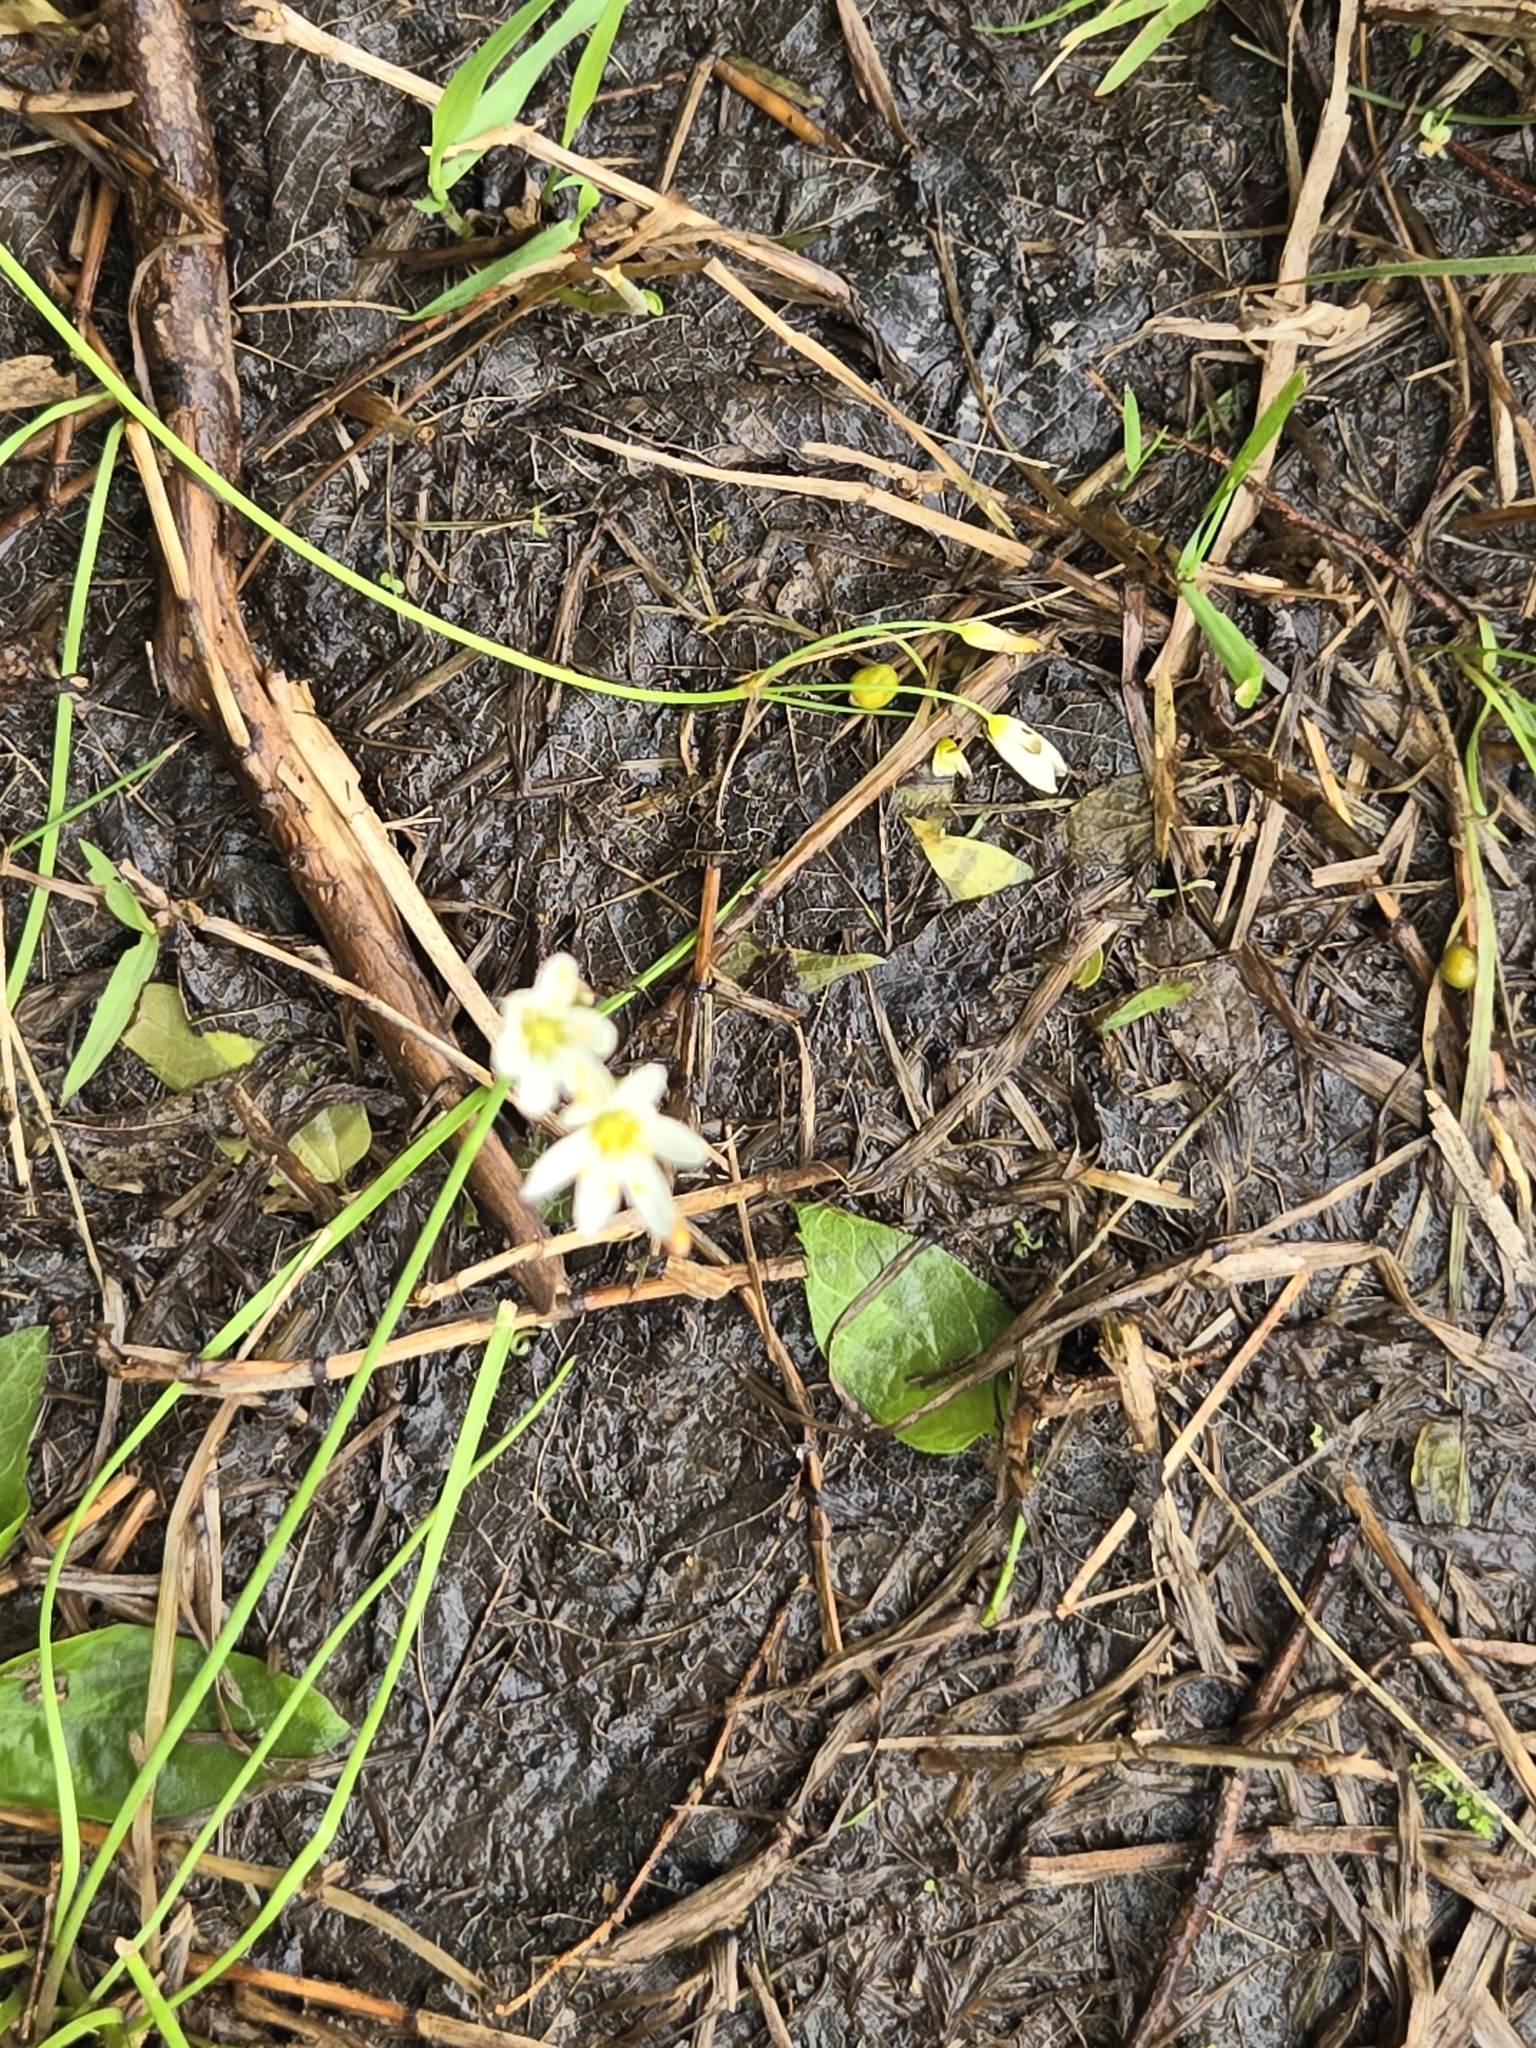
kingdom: Plantae
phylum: Tracheophyta
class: Liliopsida
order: Asparagales
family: Amaryllidaceae
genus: Nothoscordum
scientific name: Nothoscordum bivalve
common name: Crow-poison
